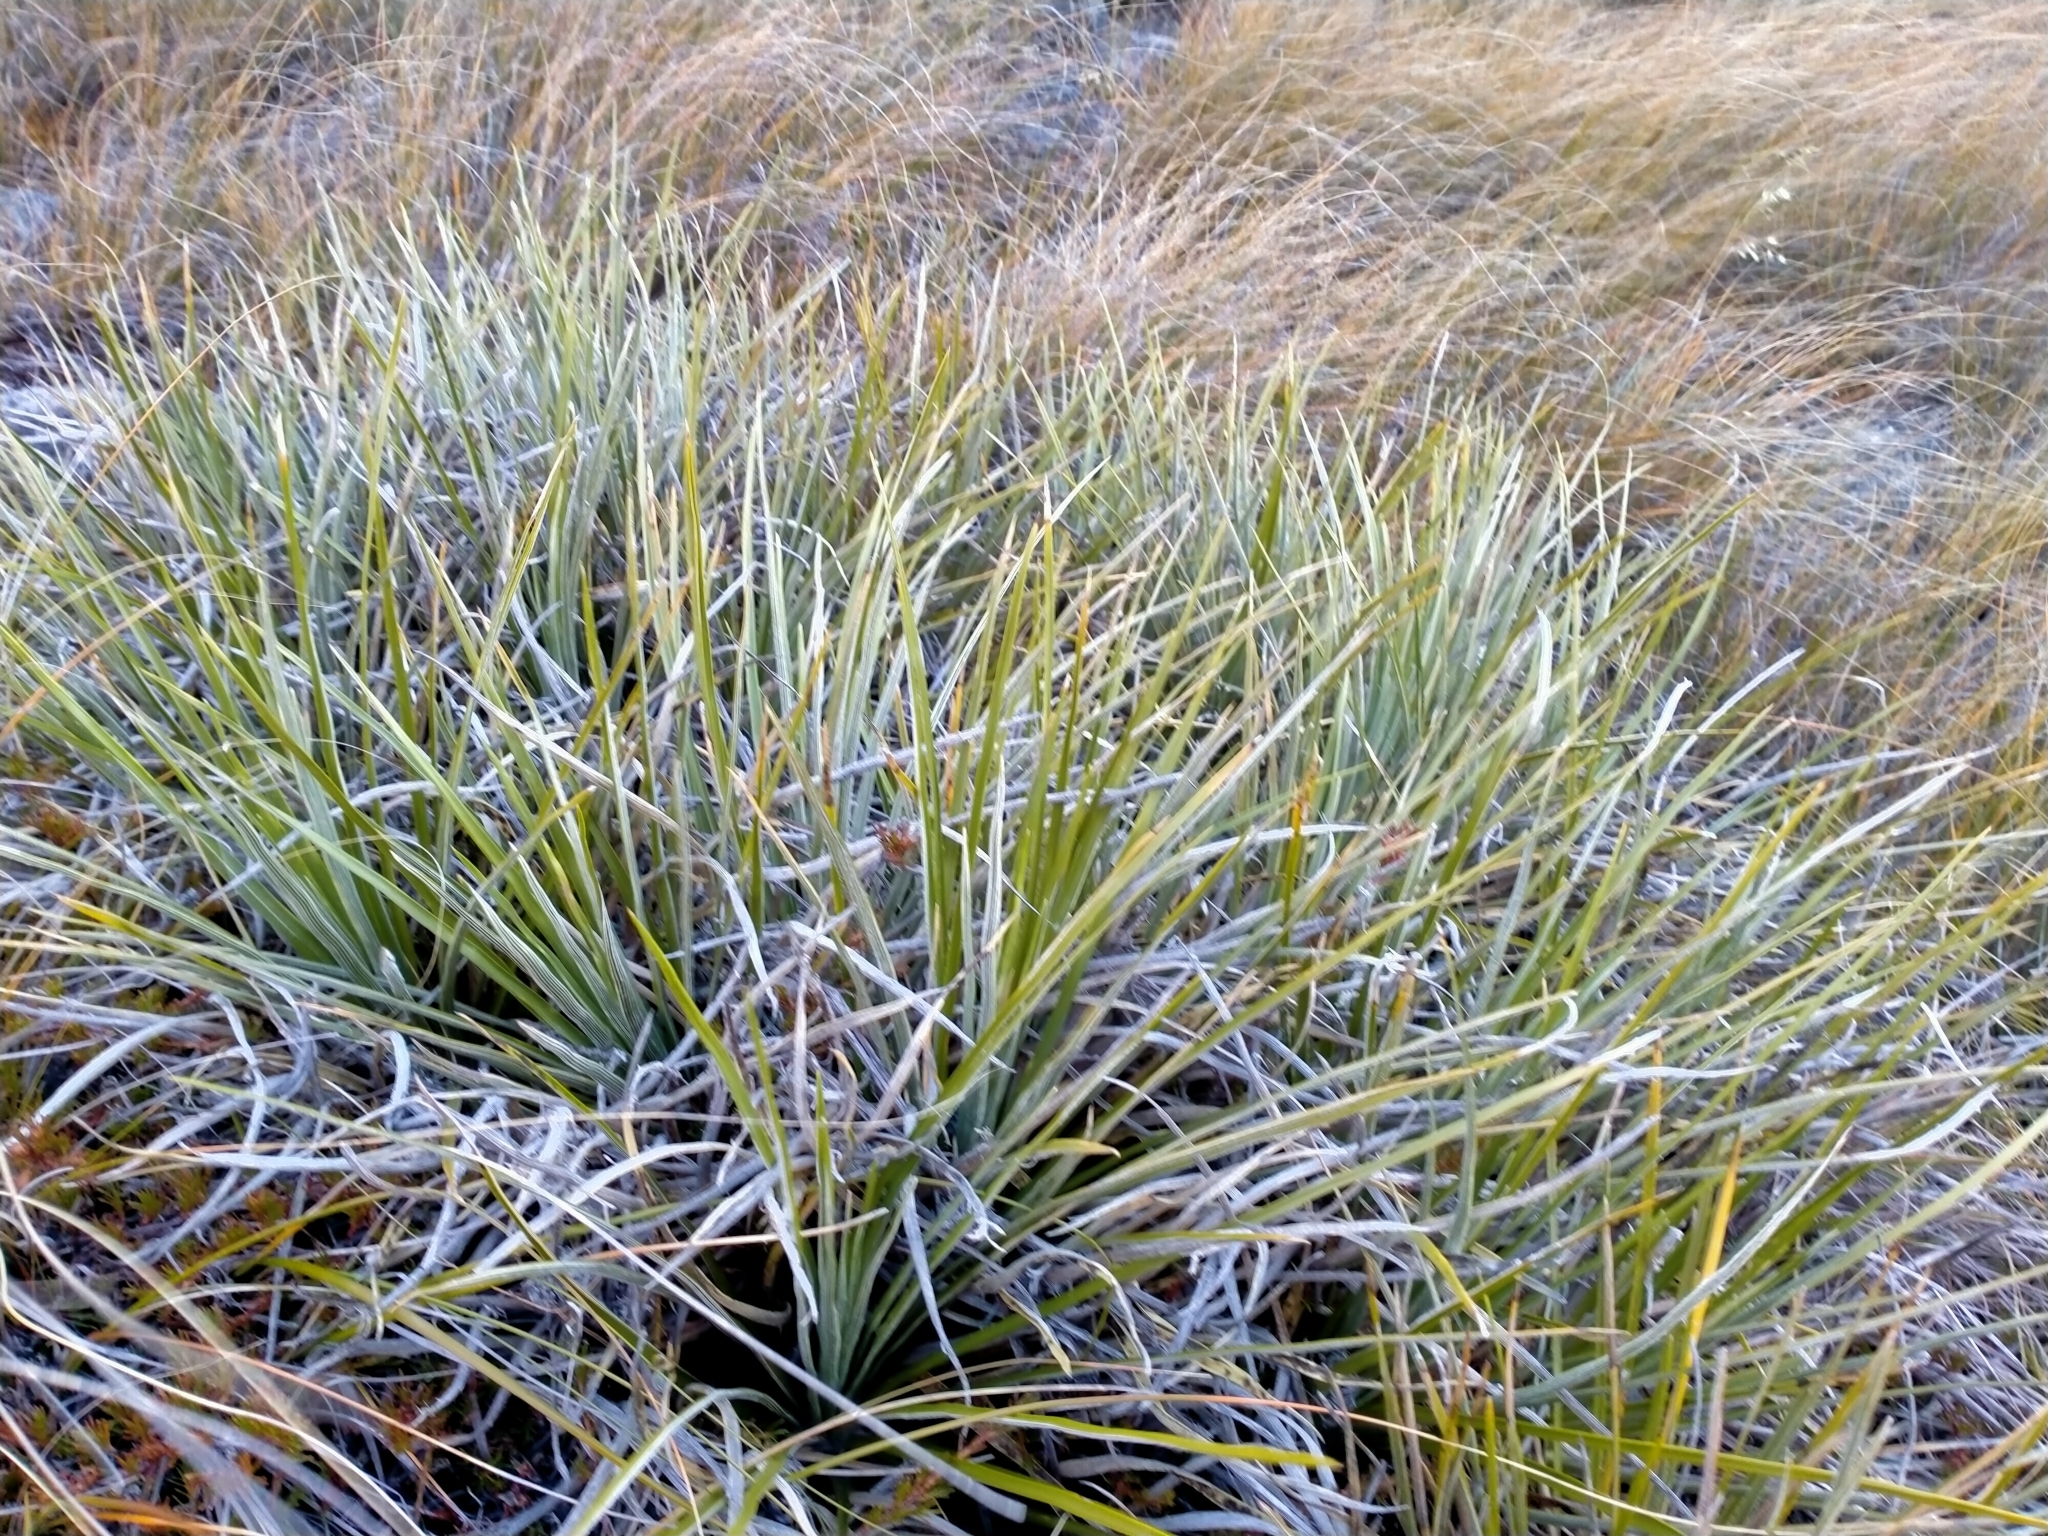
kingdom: Plantae
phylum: Tracheophyta
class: Magnoliopsida
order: Asterales
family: Asteraceae
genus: Celmisia
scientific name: Celmisia lyallii
